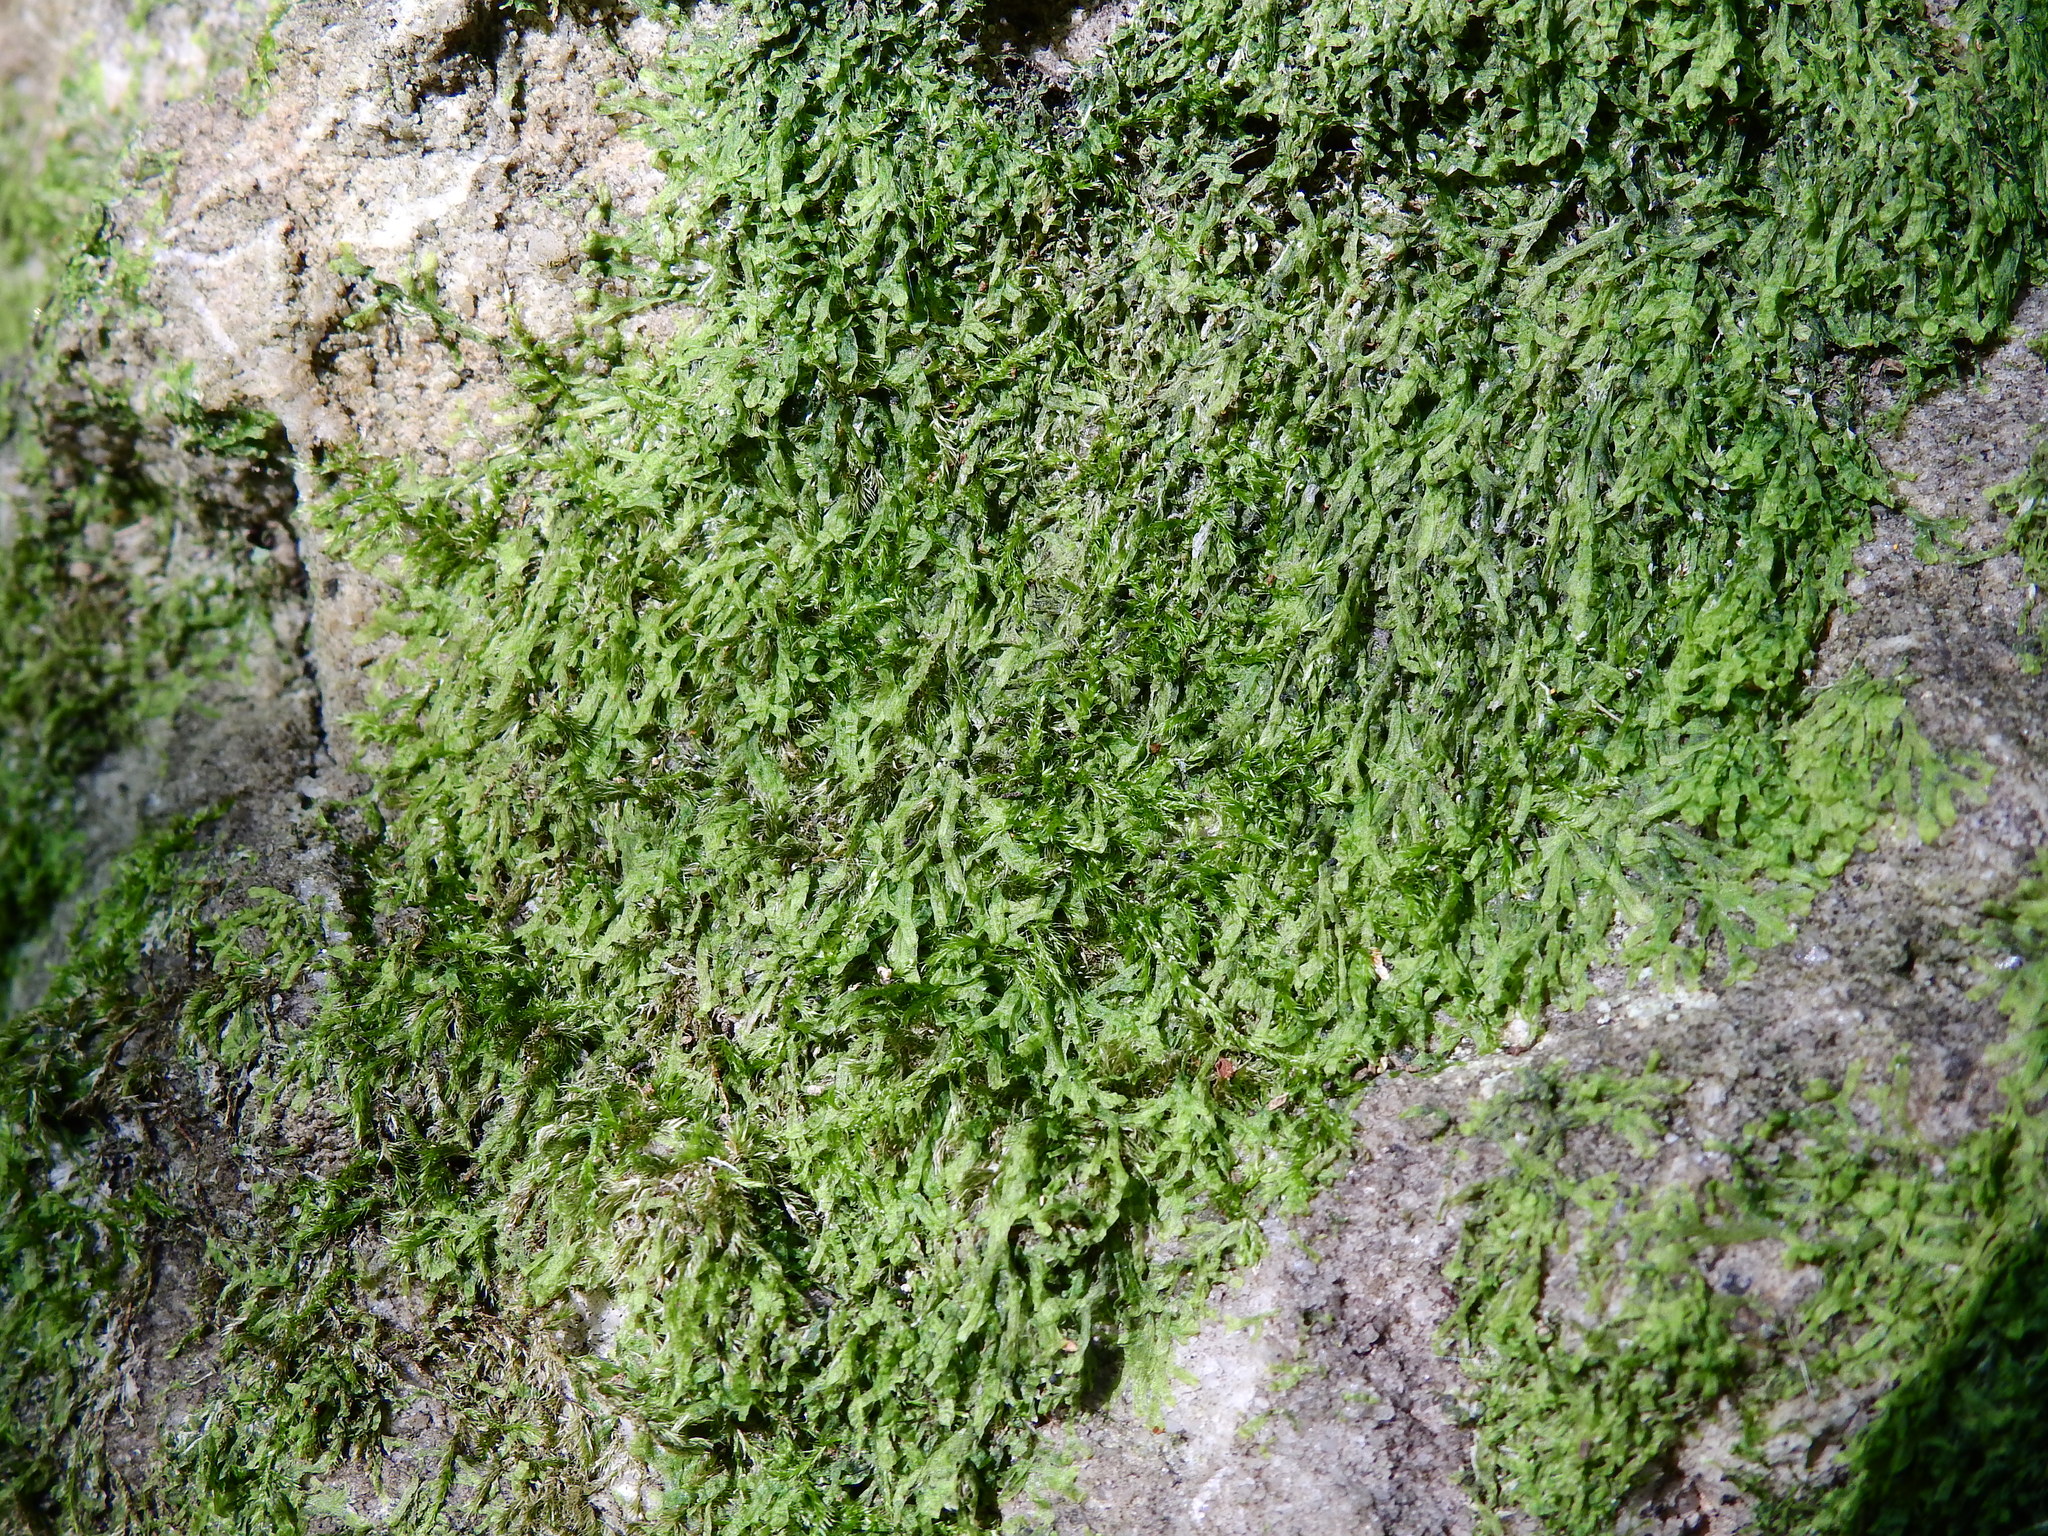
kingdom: Plantae
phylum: Marchantiophyta
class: Jungermanniopsida
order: Metzgeriales
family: Metzgeriaceae
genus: Metzgeria
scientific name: Metzgeria conjugata
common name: Rock veilwort
